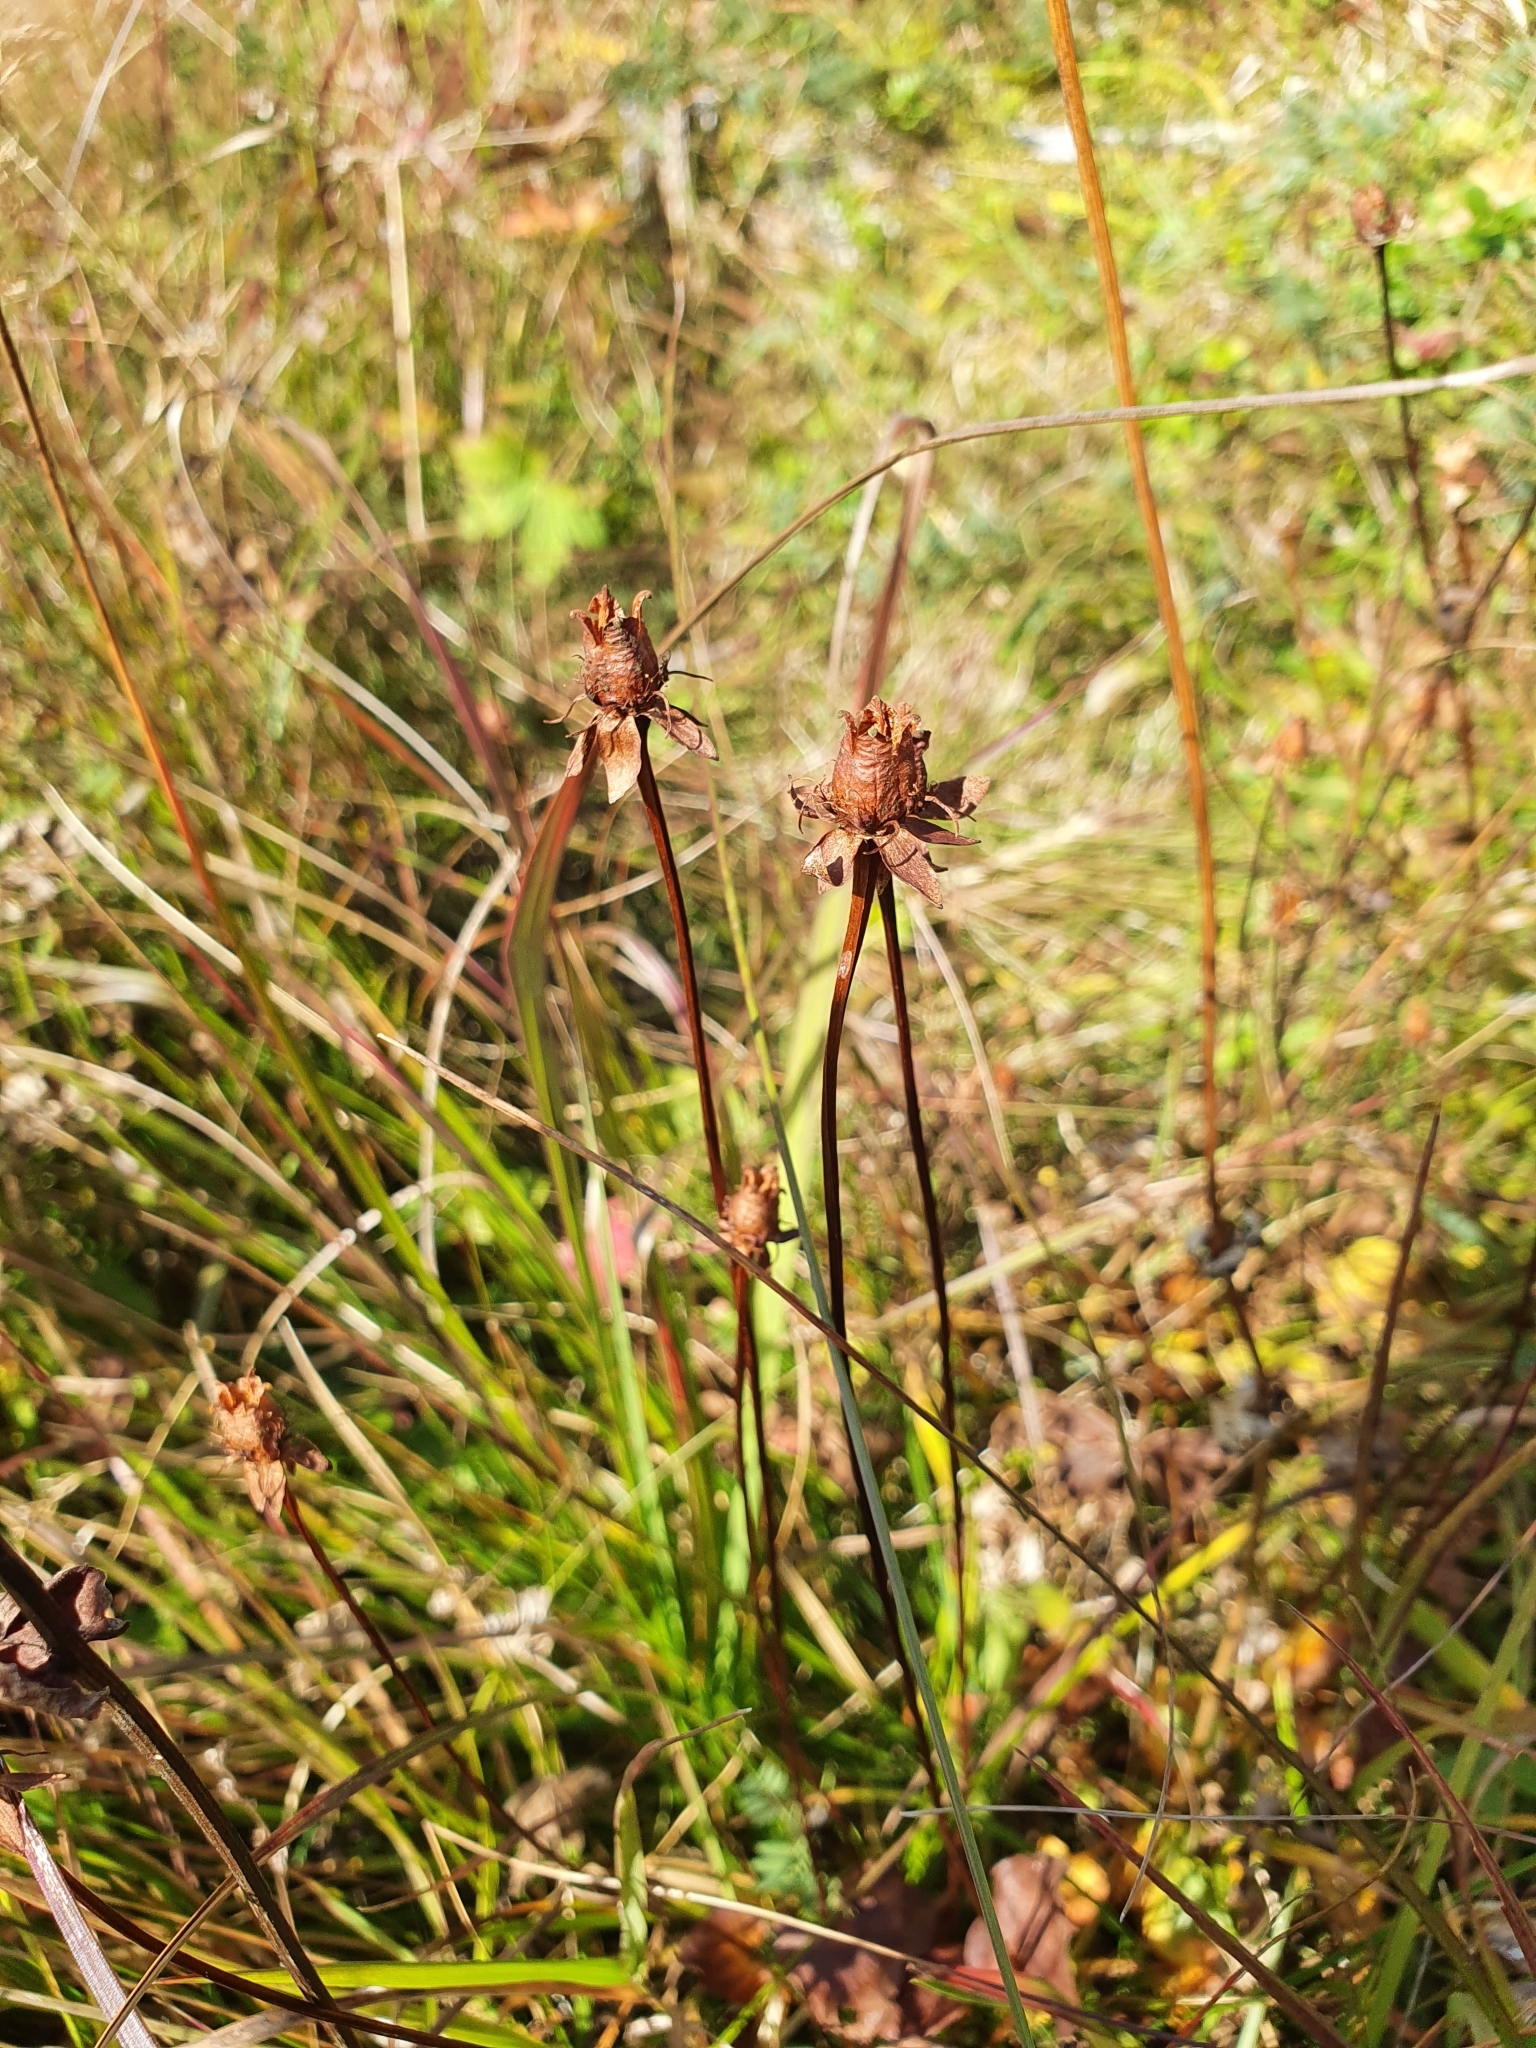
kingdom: Plantae
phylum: Tracheophyta
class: Magnoliopsida
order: Celastrales
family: Parnassiaceae
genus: Parnassia
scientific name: Parnassia palustris
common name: Grass-of-parnassus
